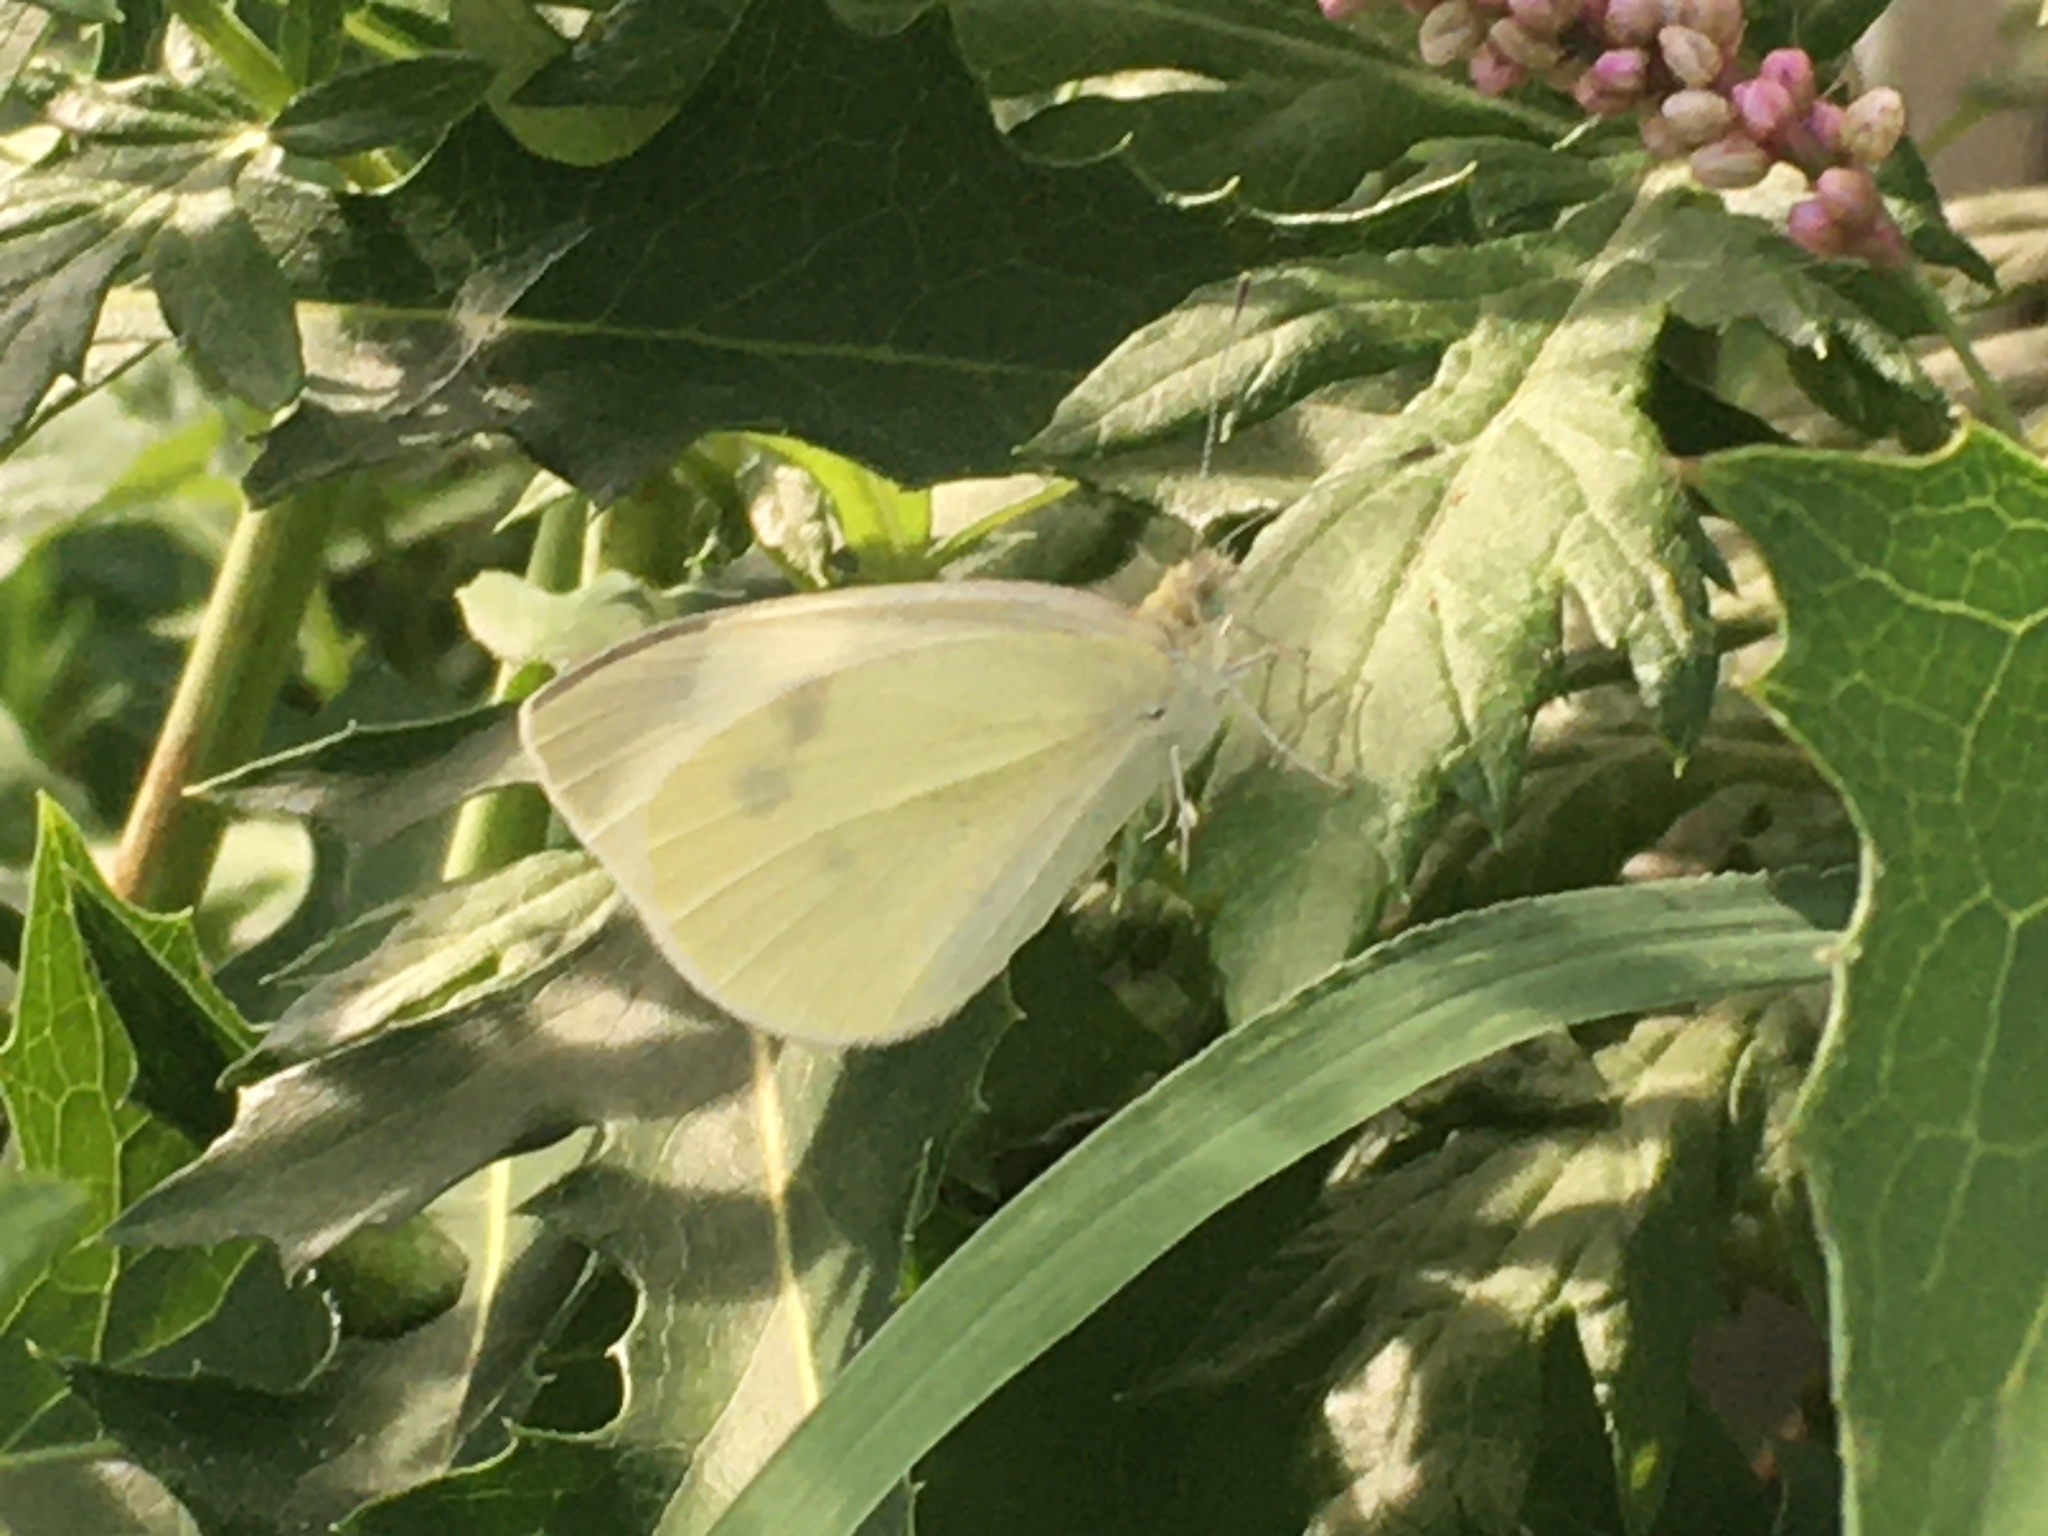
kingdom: Animalia
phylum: Arthropoda
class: Insecta
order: Lepidoptera
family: Pieridae
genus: Pieris
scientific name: Pieris rapae
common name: Small white
